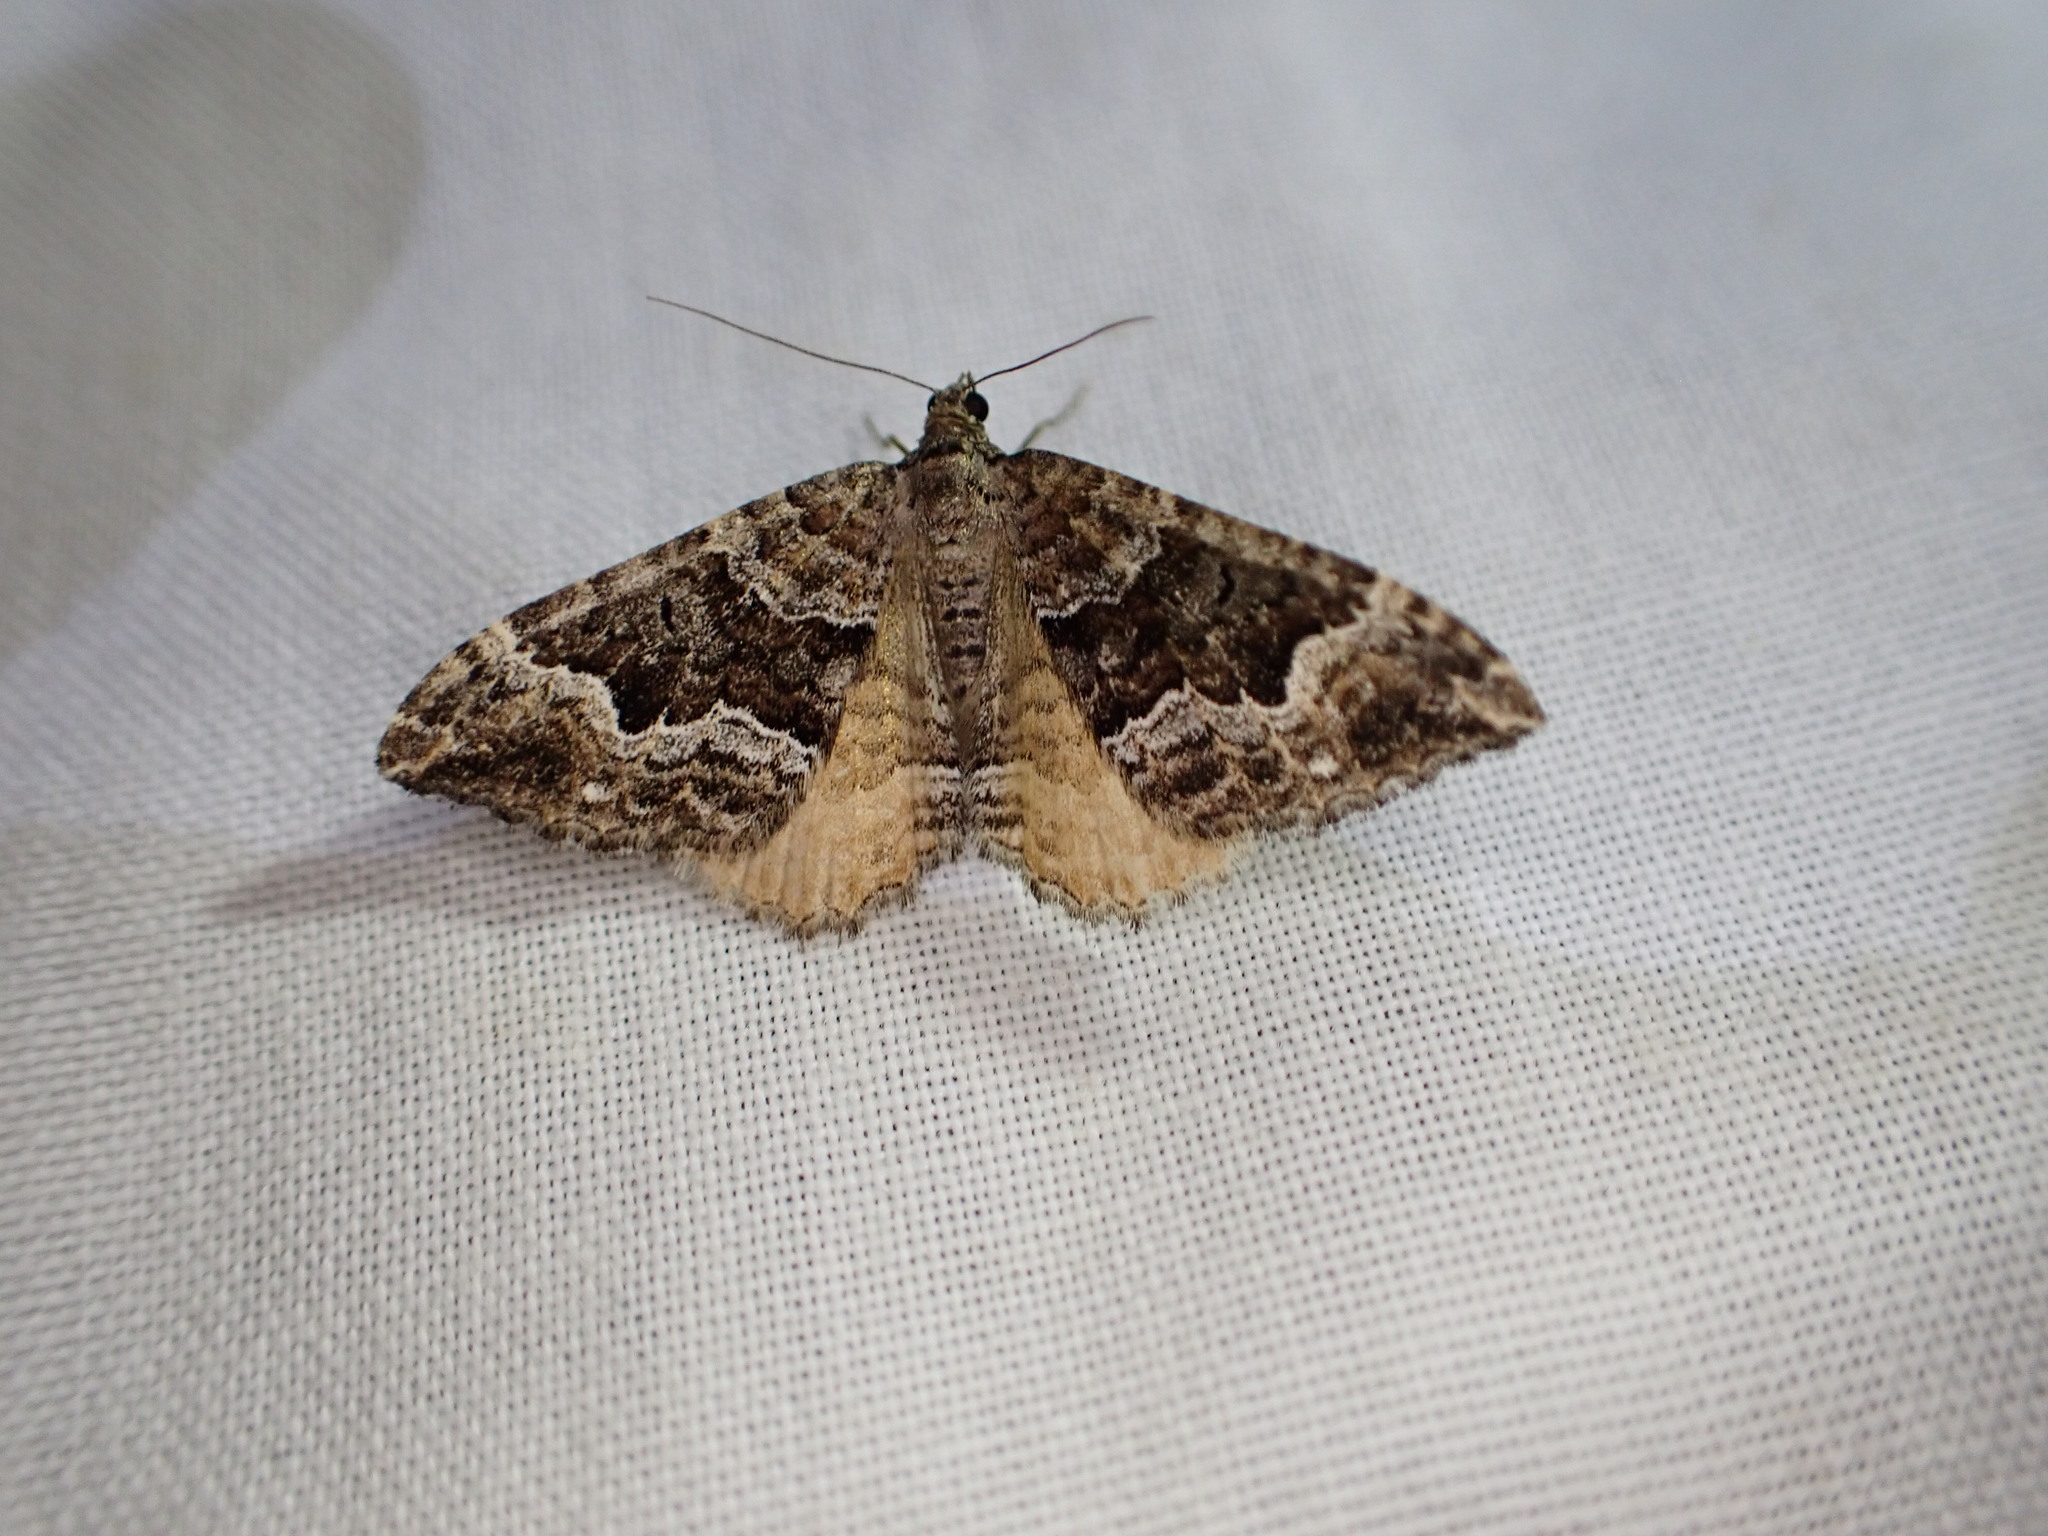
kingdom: Animalia
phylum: Arthropoda
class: Insecta
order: Lepidoptera
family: Geometridae
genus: Hydriomena
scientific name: Hydriomena deltoidata
